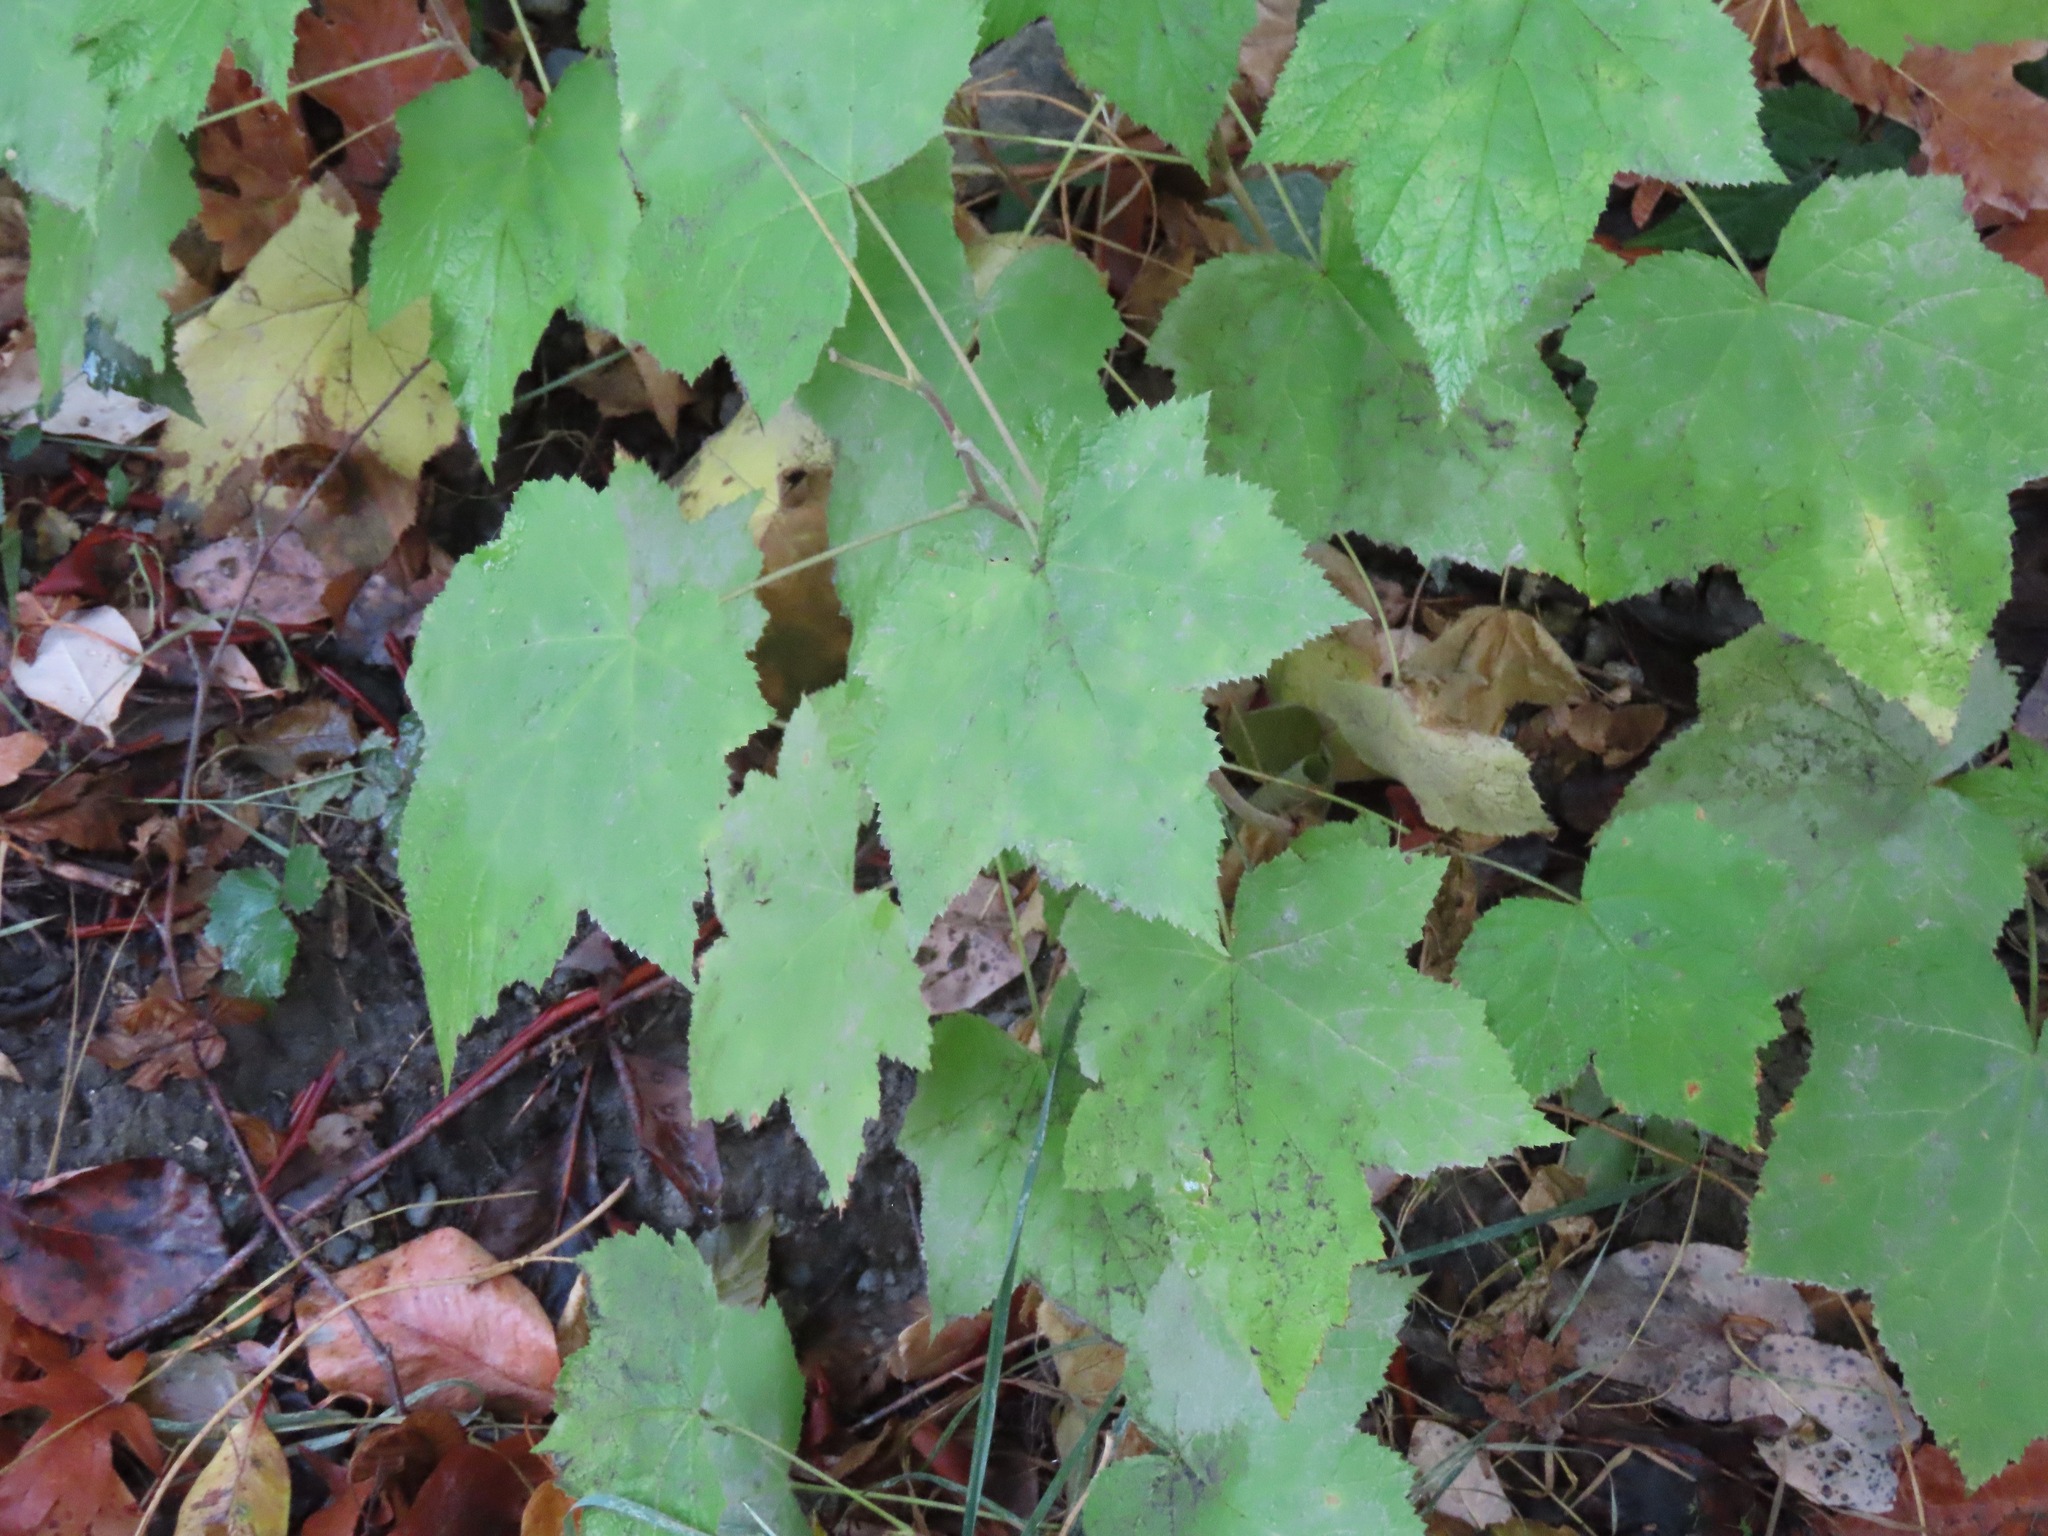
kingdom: Plantae
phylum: Tracheophyta
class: Magnoliopsida
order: Rosales
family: Rosaceae
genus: Rubus
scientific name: Rubus parviflorus
